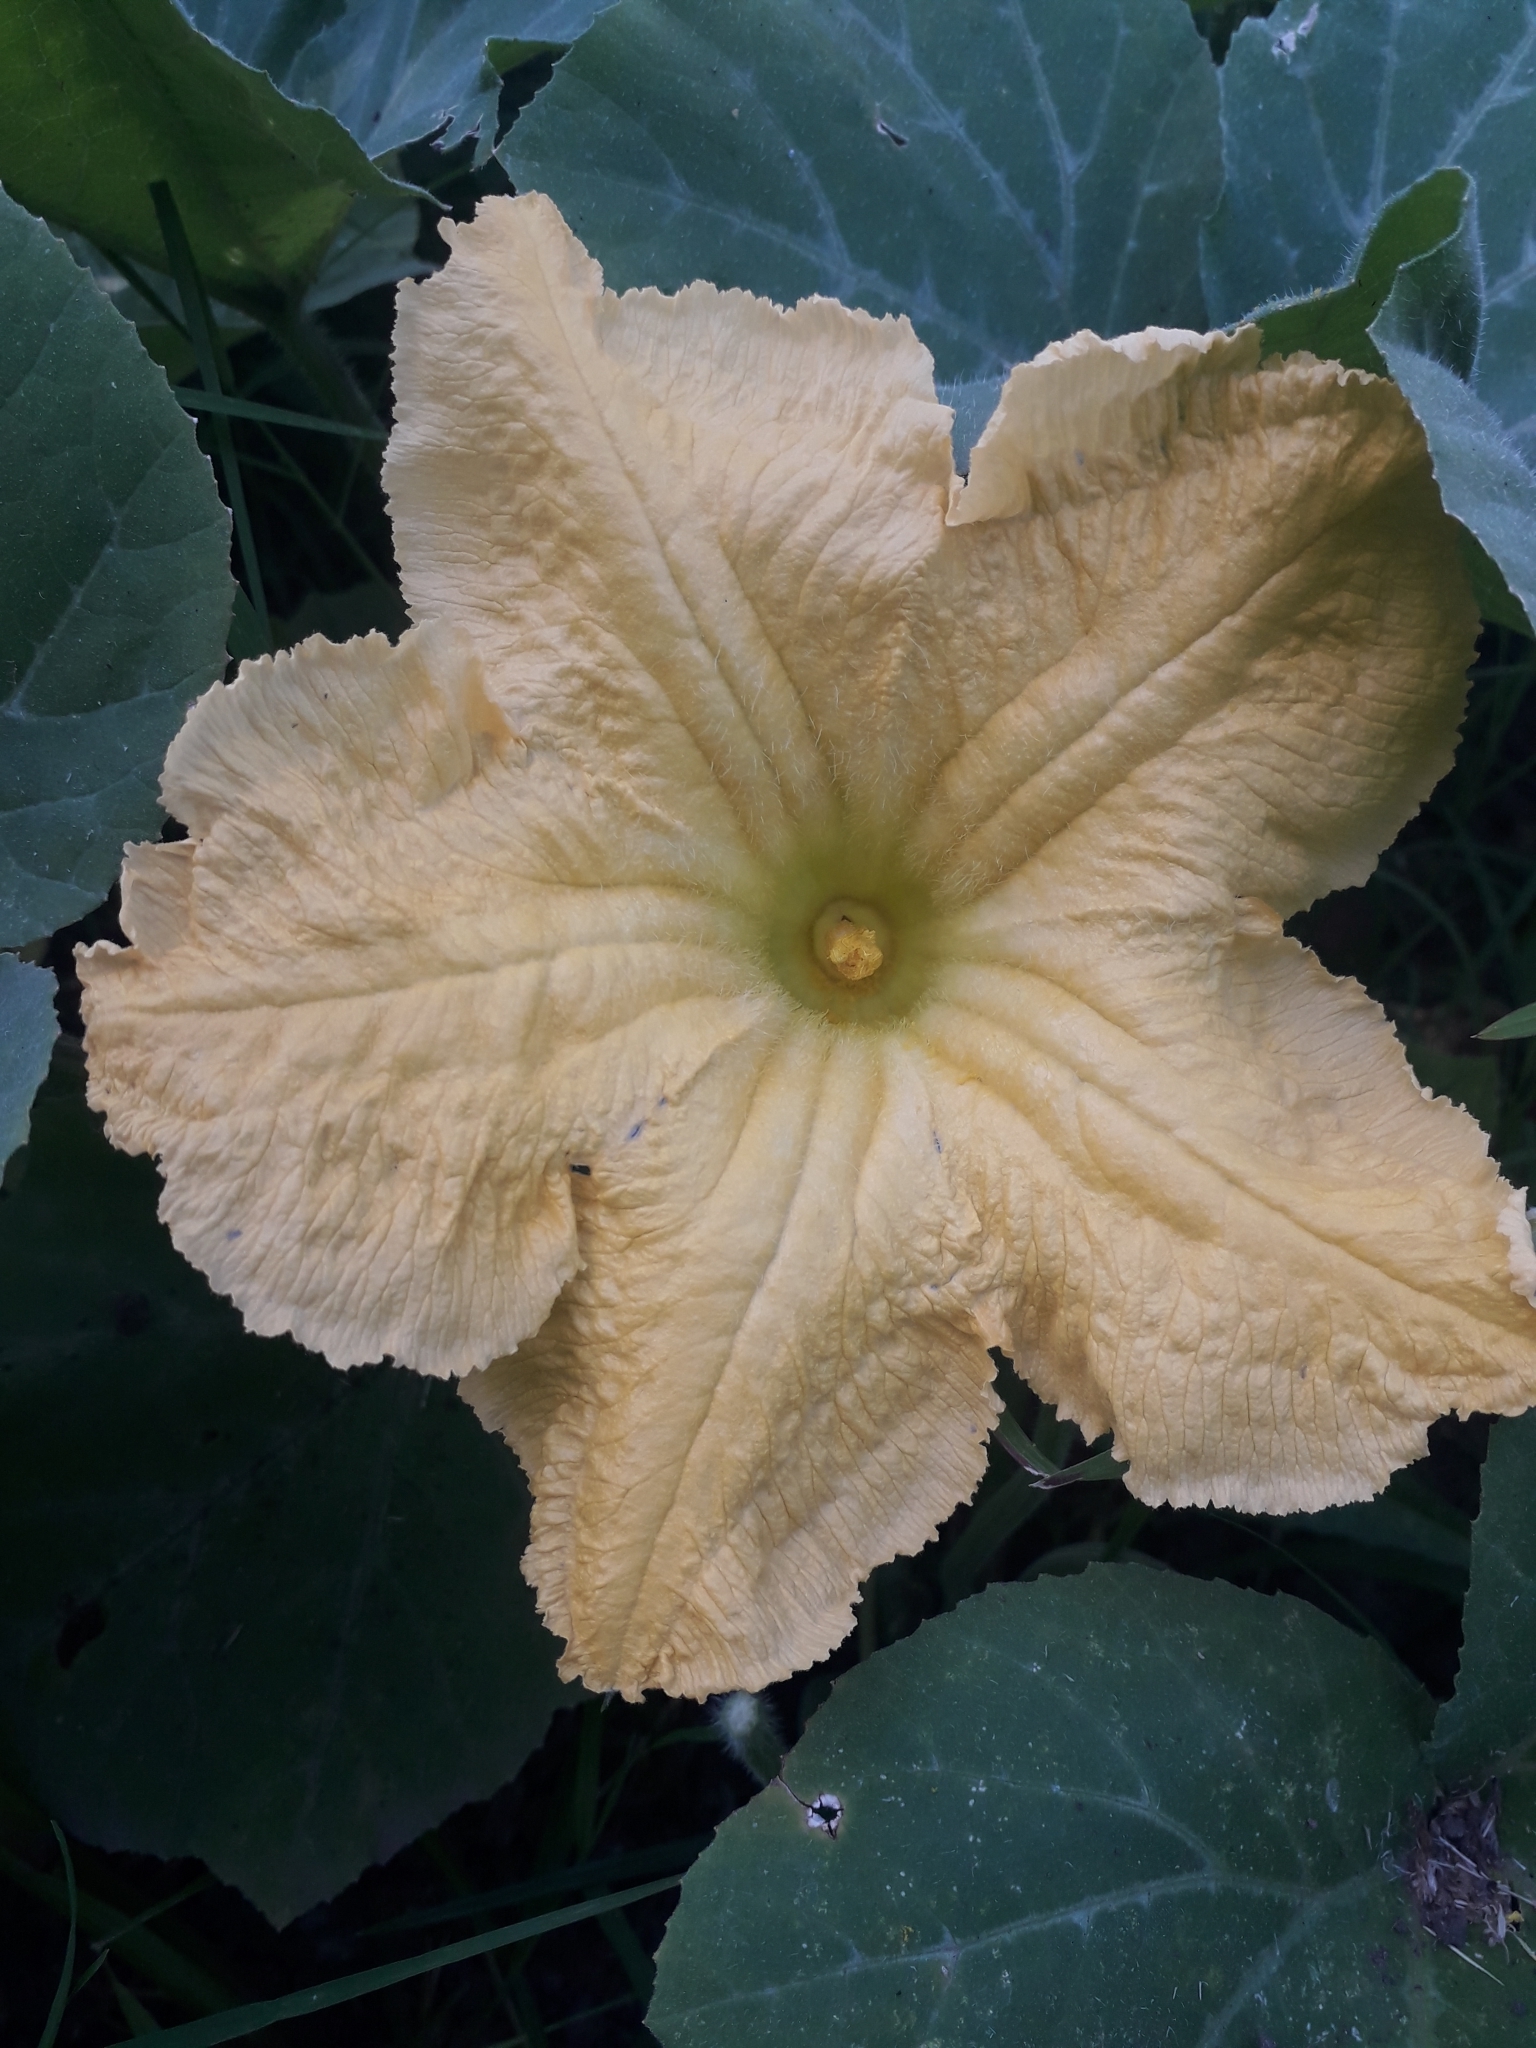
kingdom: Plantae
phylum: Tracheophyta
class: Magnoliopsida
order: Cucurbitales
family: Cucurbitaceae
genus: Cucurbita
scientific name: Cucurbita moschata
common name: Squash / pumpkin
